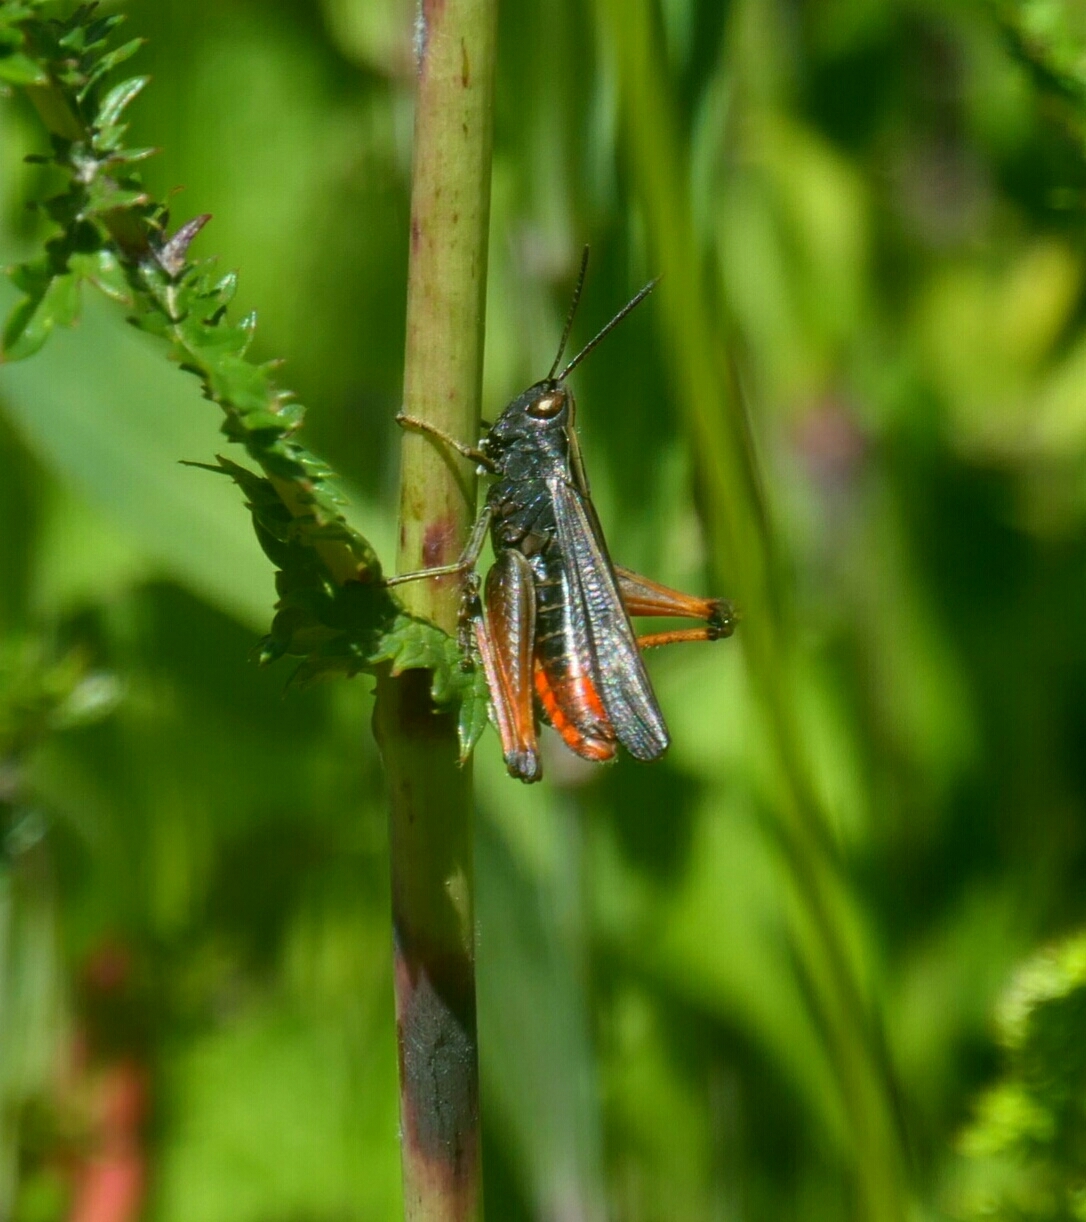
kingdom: Animalia
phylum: Arthropoda
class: Insecta
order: Orthoptera
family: Acrididae
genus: Omocestus
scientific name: Omocestus rufipes
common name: Woodland grasshopper
